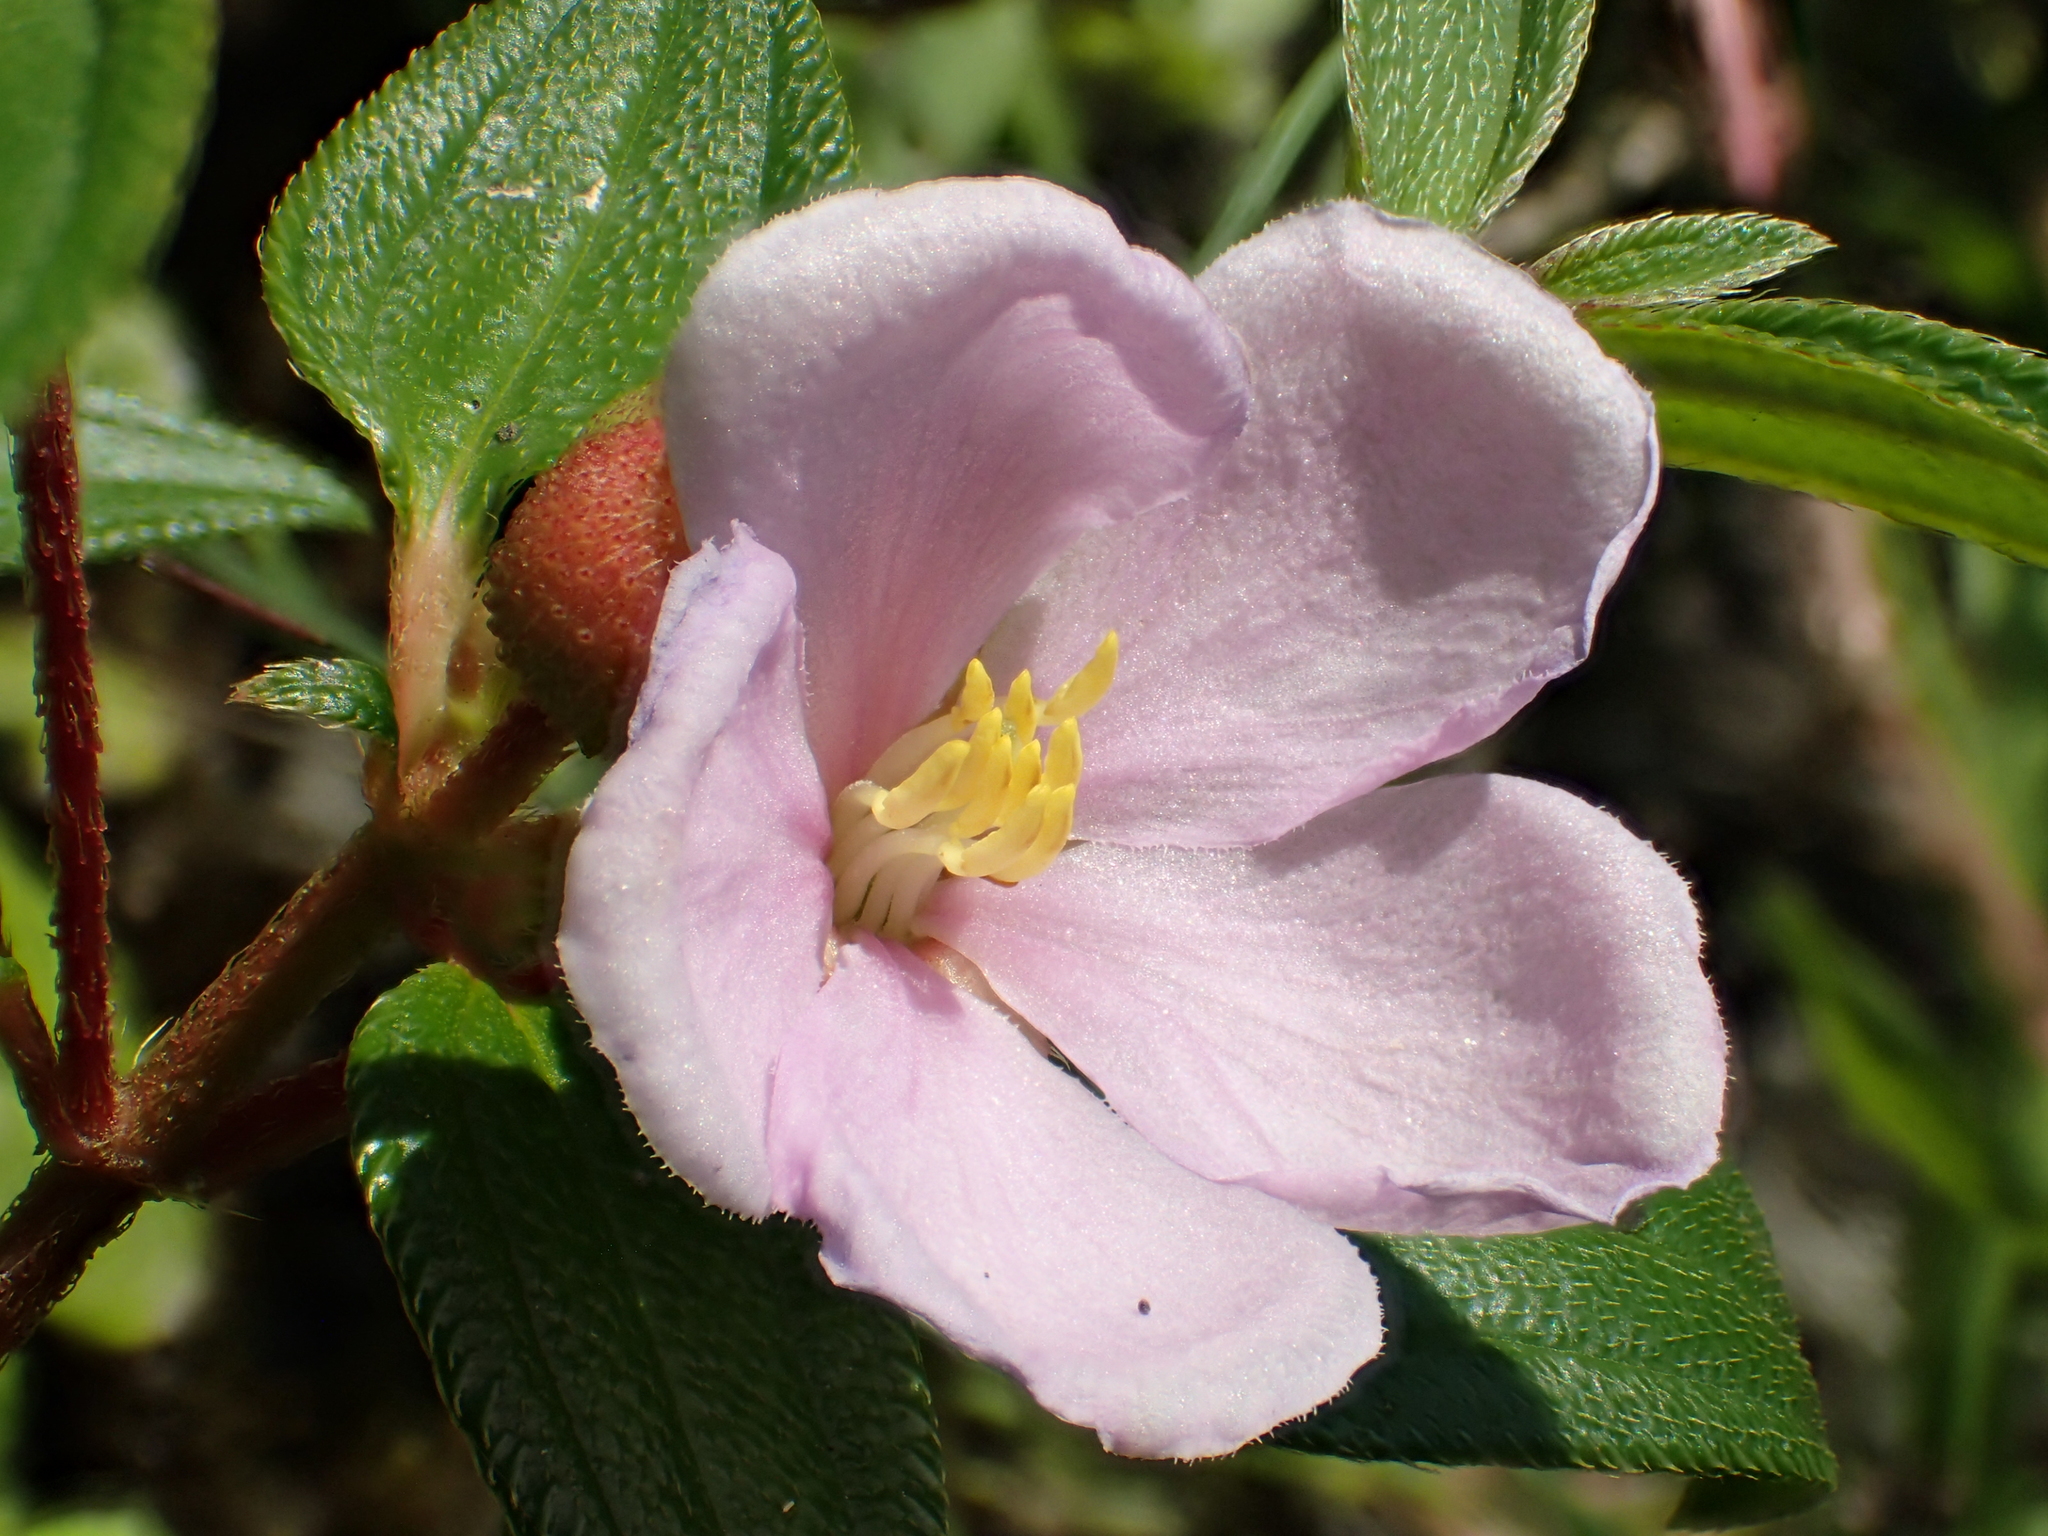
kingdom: Plantae
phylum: Tracheophyta
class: Magnoliopsida
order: Myrtales
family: Melastomataceae
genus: Melastoma
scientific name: Melastoma scaberrima
